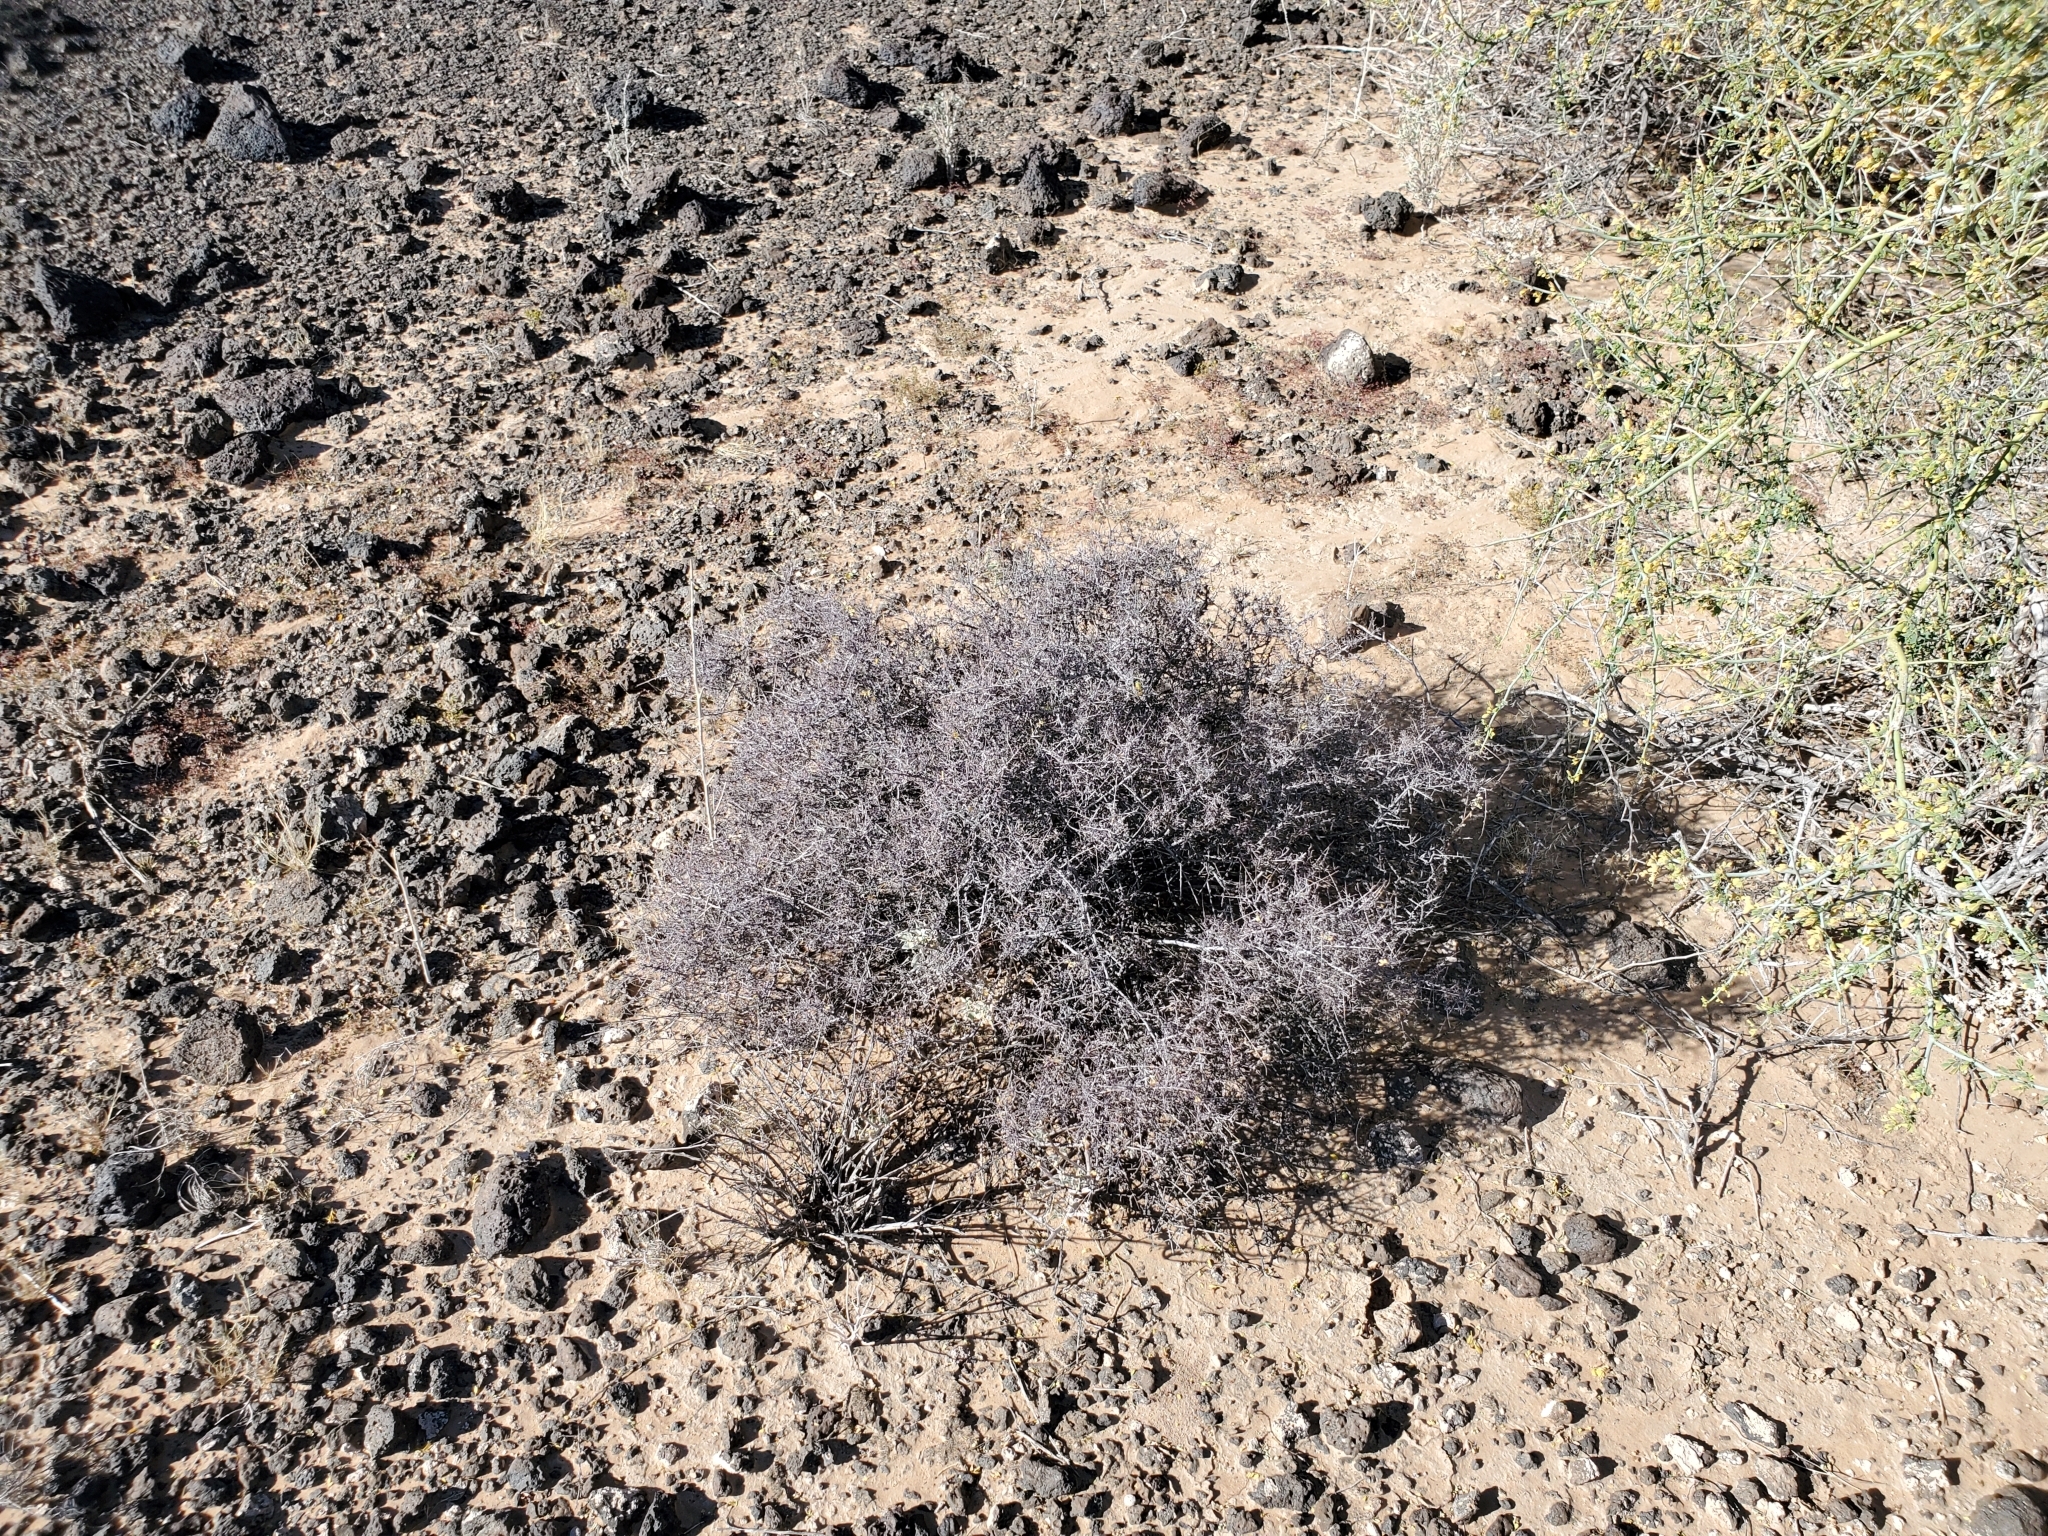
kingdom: Plantae
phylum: Tracheophyta
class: Magnoliopsida
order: Zygophyllales
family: Krameriaceae
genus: Krameria
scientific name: Krameria bicolor
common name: White ratany
